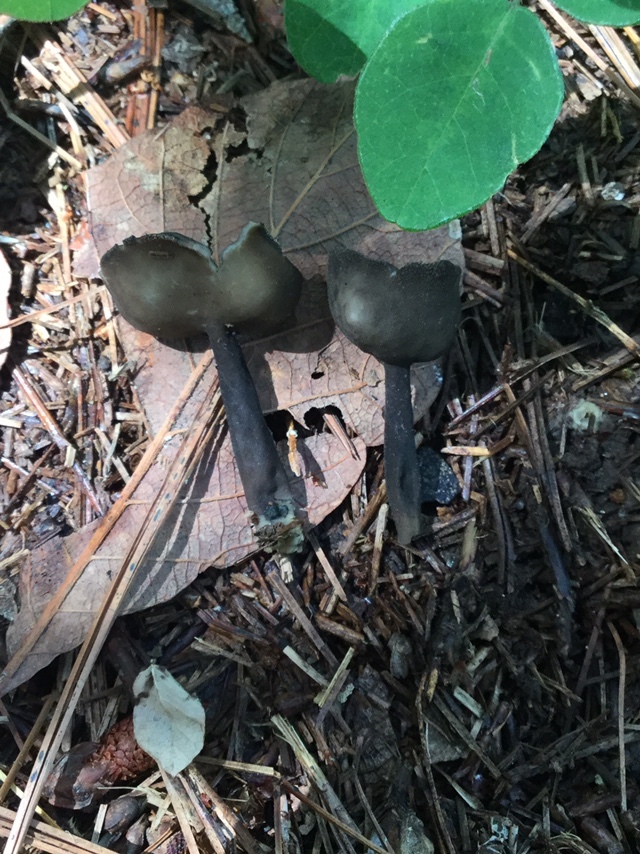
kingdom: Fungi
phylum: Ascomycota
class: Pezizomycetes
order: Pezizales
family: Helvellaceae
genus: Helvella
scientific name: Helvella macropus
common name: Felt saddle
